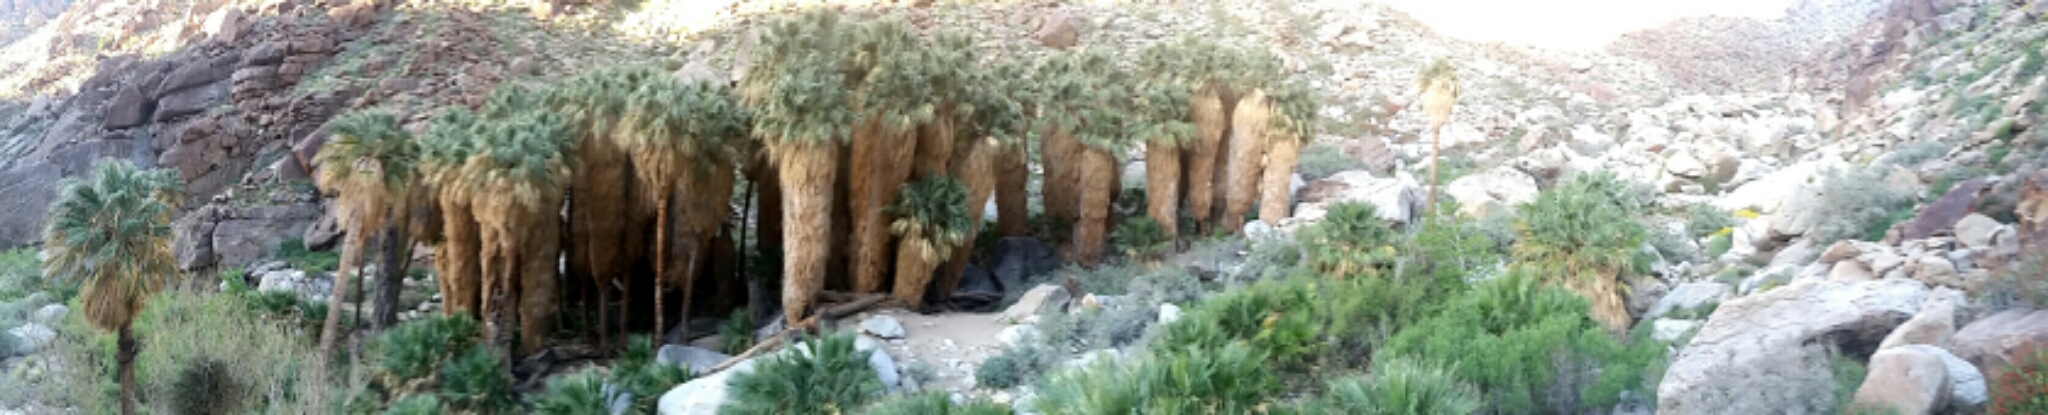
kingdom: Plantae
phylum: Tracheophyta
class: Liliopsida
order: Arecales
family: Arecaceae
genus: Washingtonia
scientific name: Washingtonia filifera
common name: California fan palm
